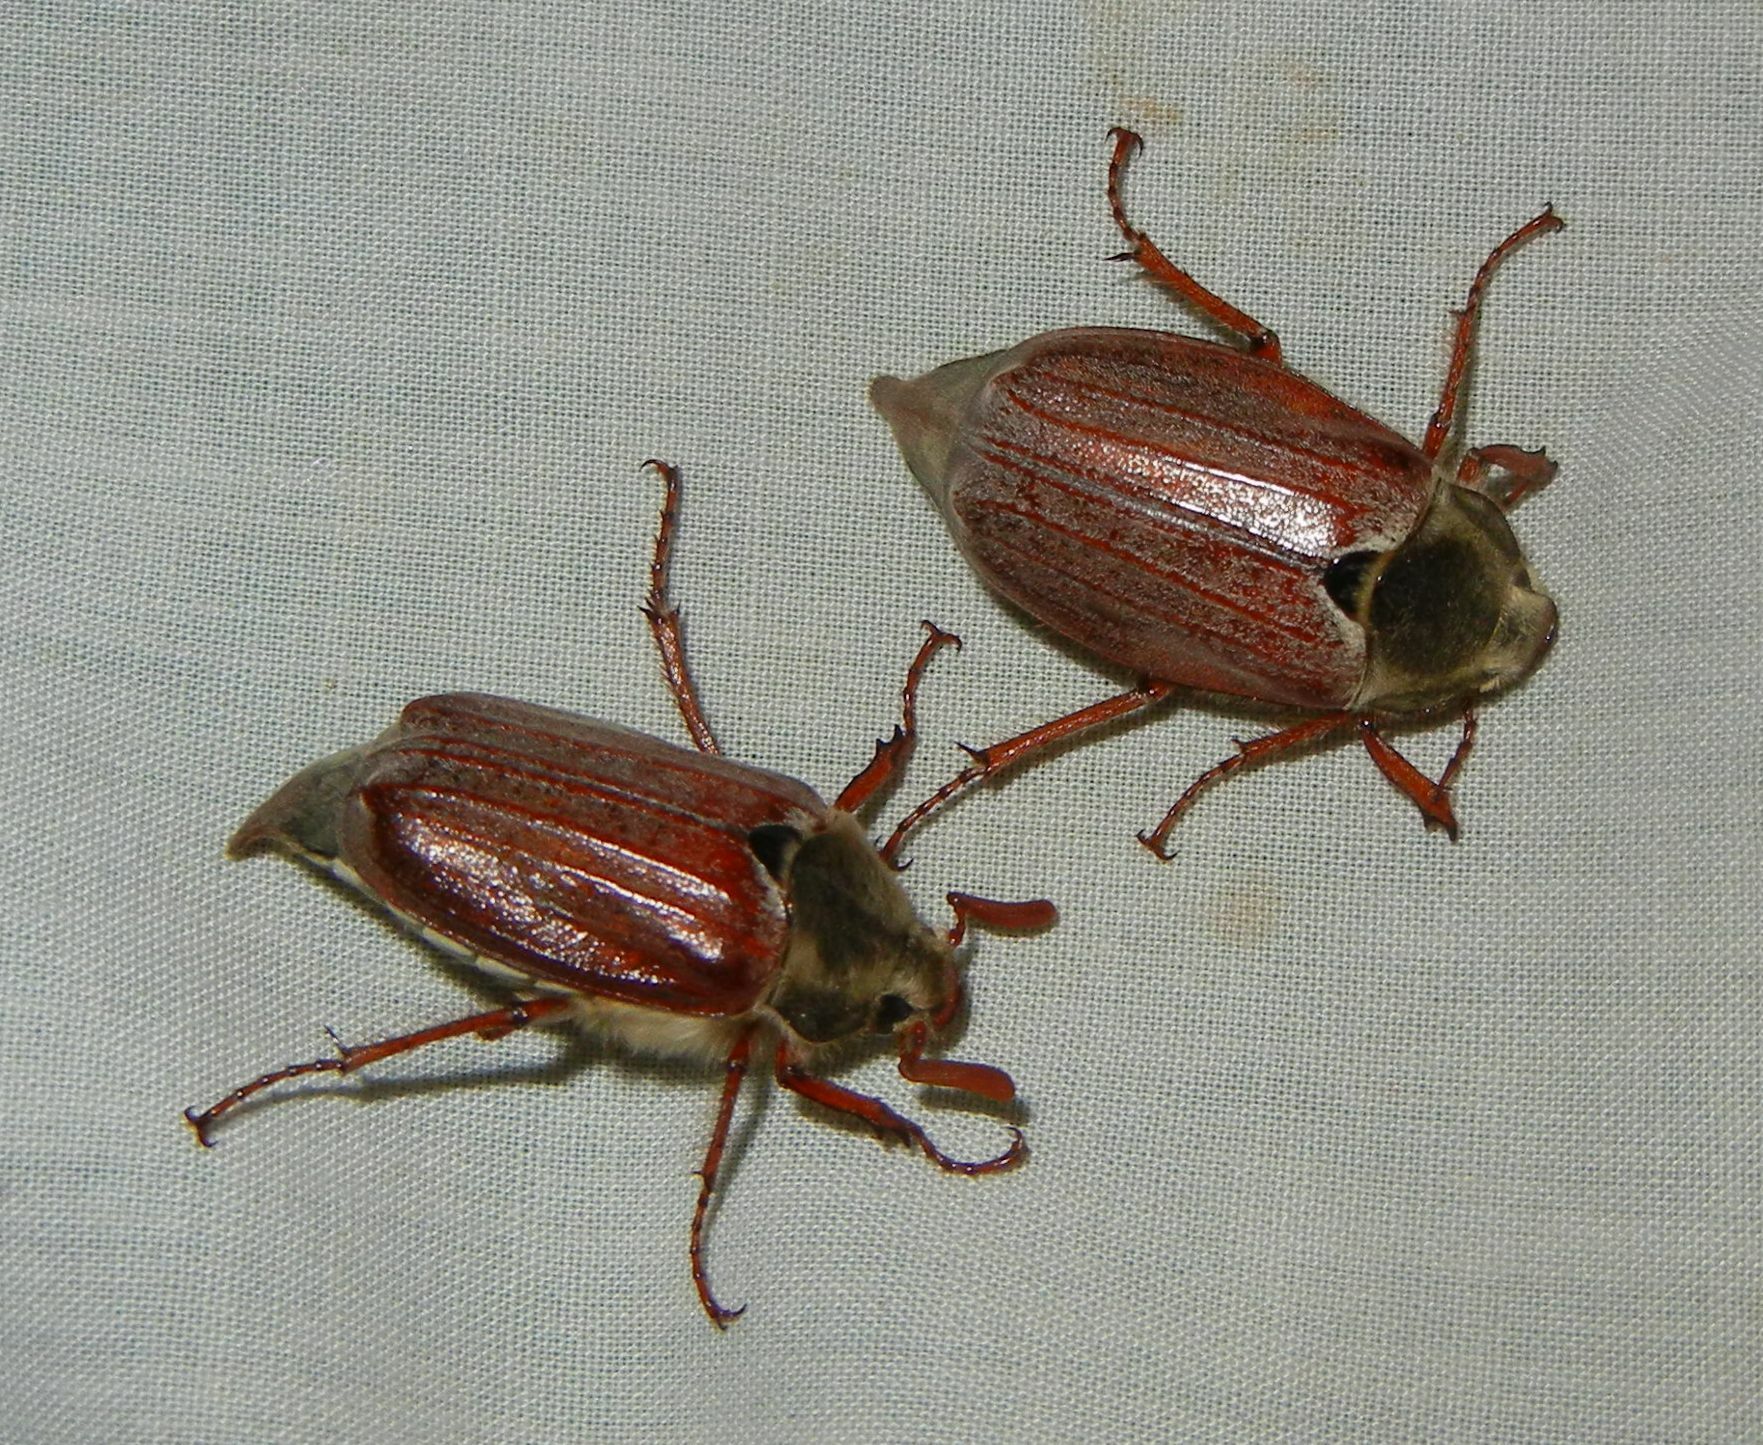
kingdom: Animalia
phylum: Arthropoda
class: Insecta
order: Coleoptera
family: Scarabaeidae
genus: Melolontha
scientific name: Melolontha melolontha
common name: Cockchafer maybeetle
